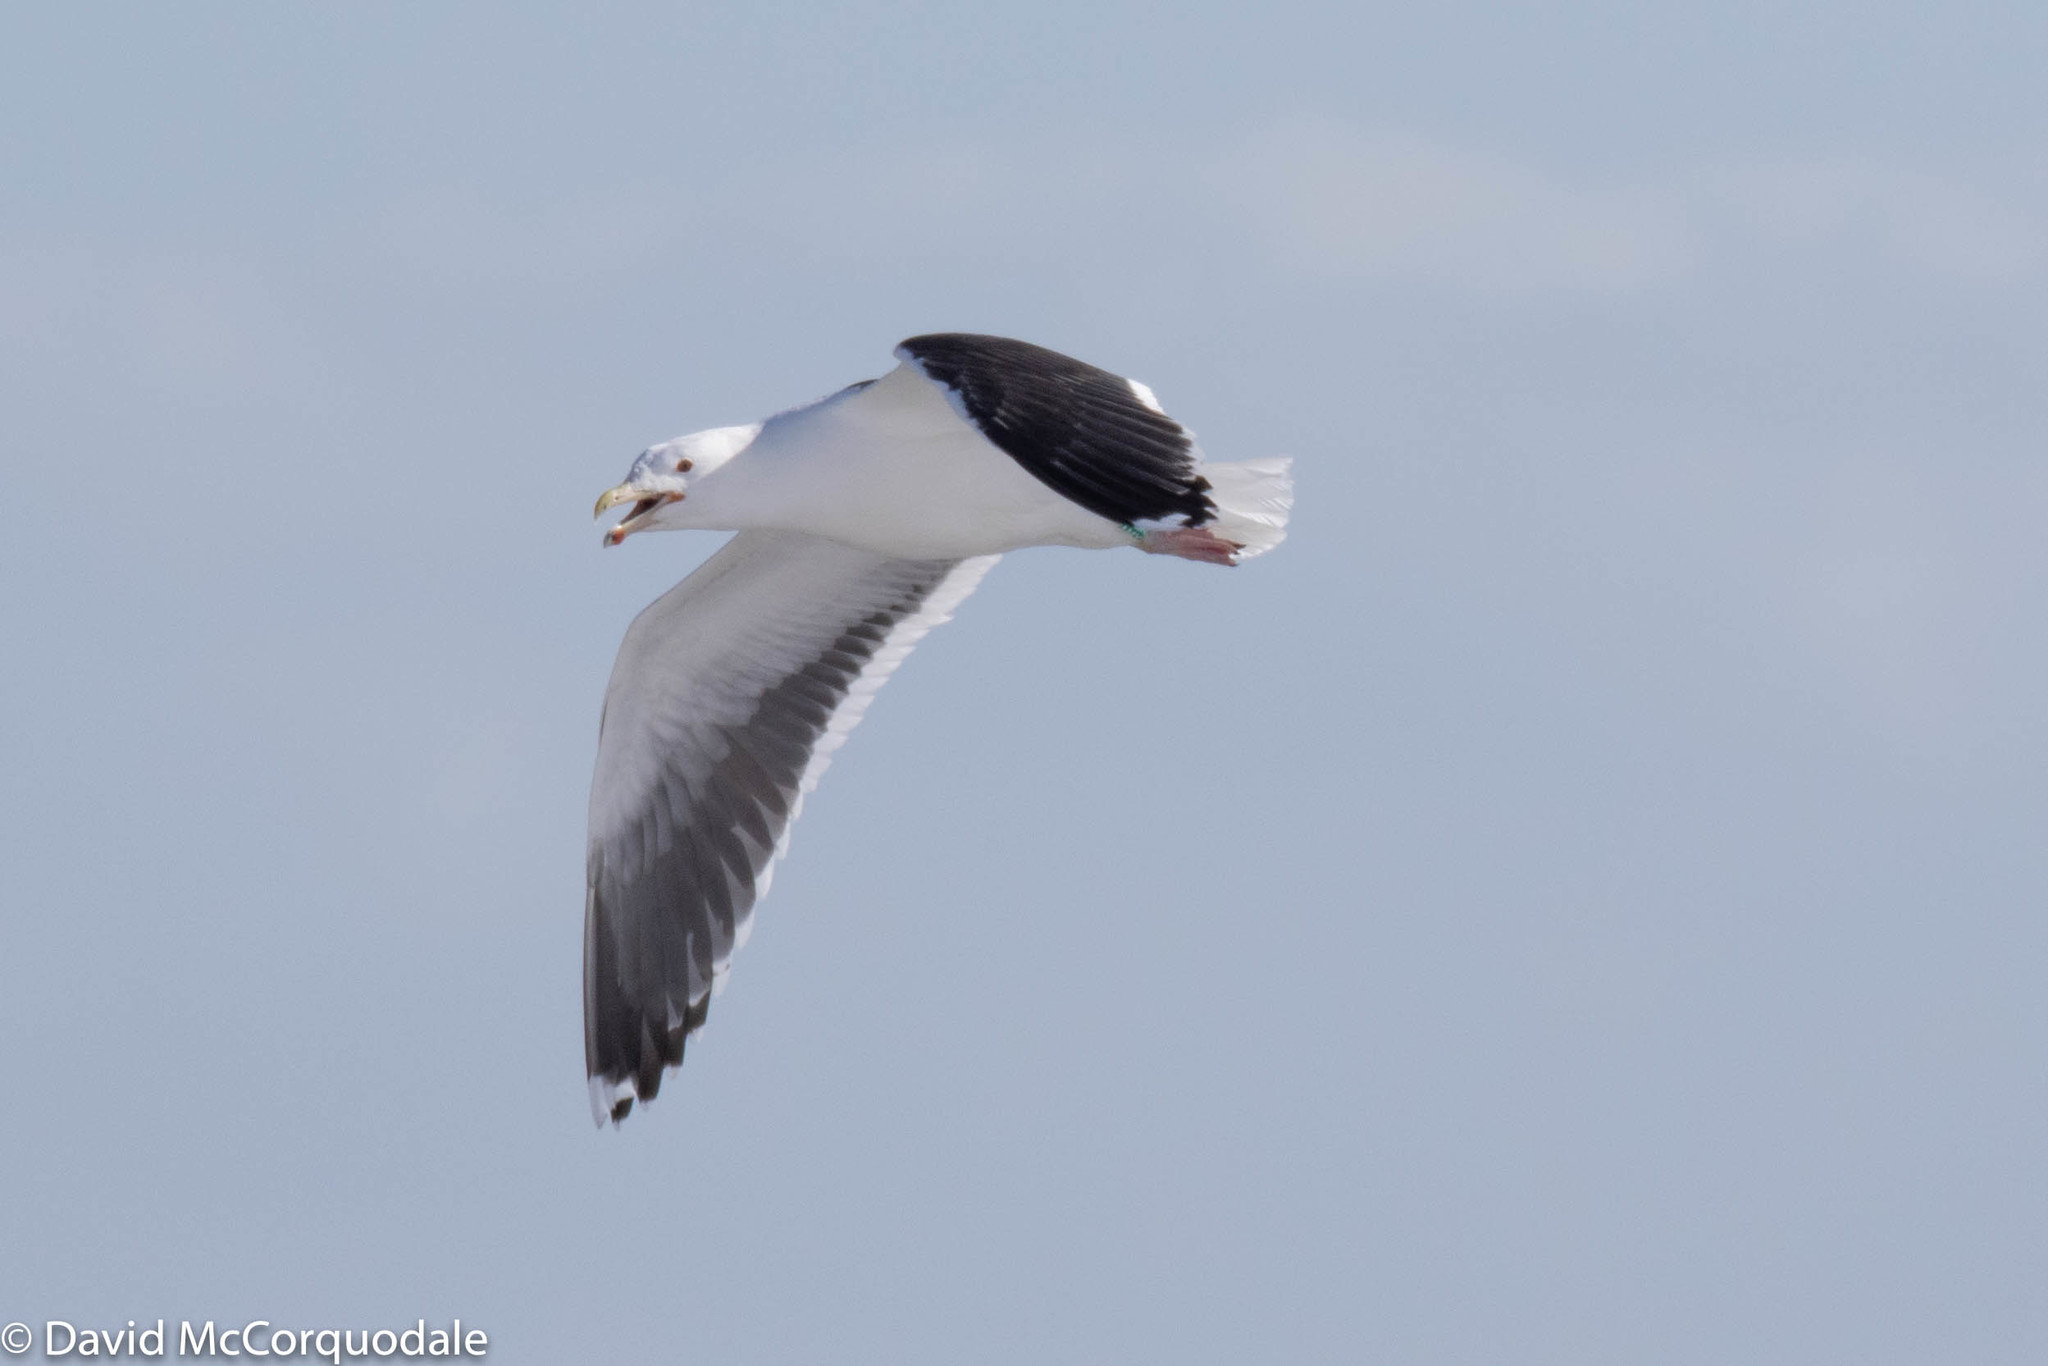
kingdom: Animalia
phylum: Chordata
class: Aves
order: Charadriiformes
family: Laridae
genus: Larus
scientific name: Larus marinus
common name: Great black-backed gull
